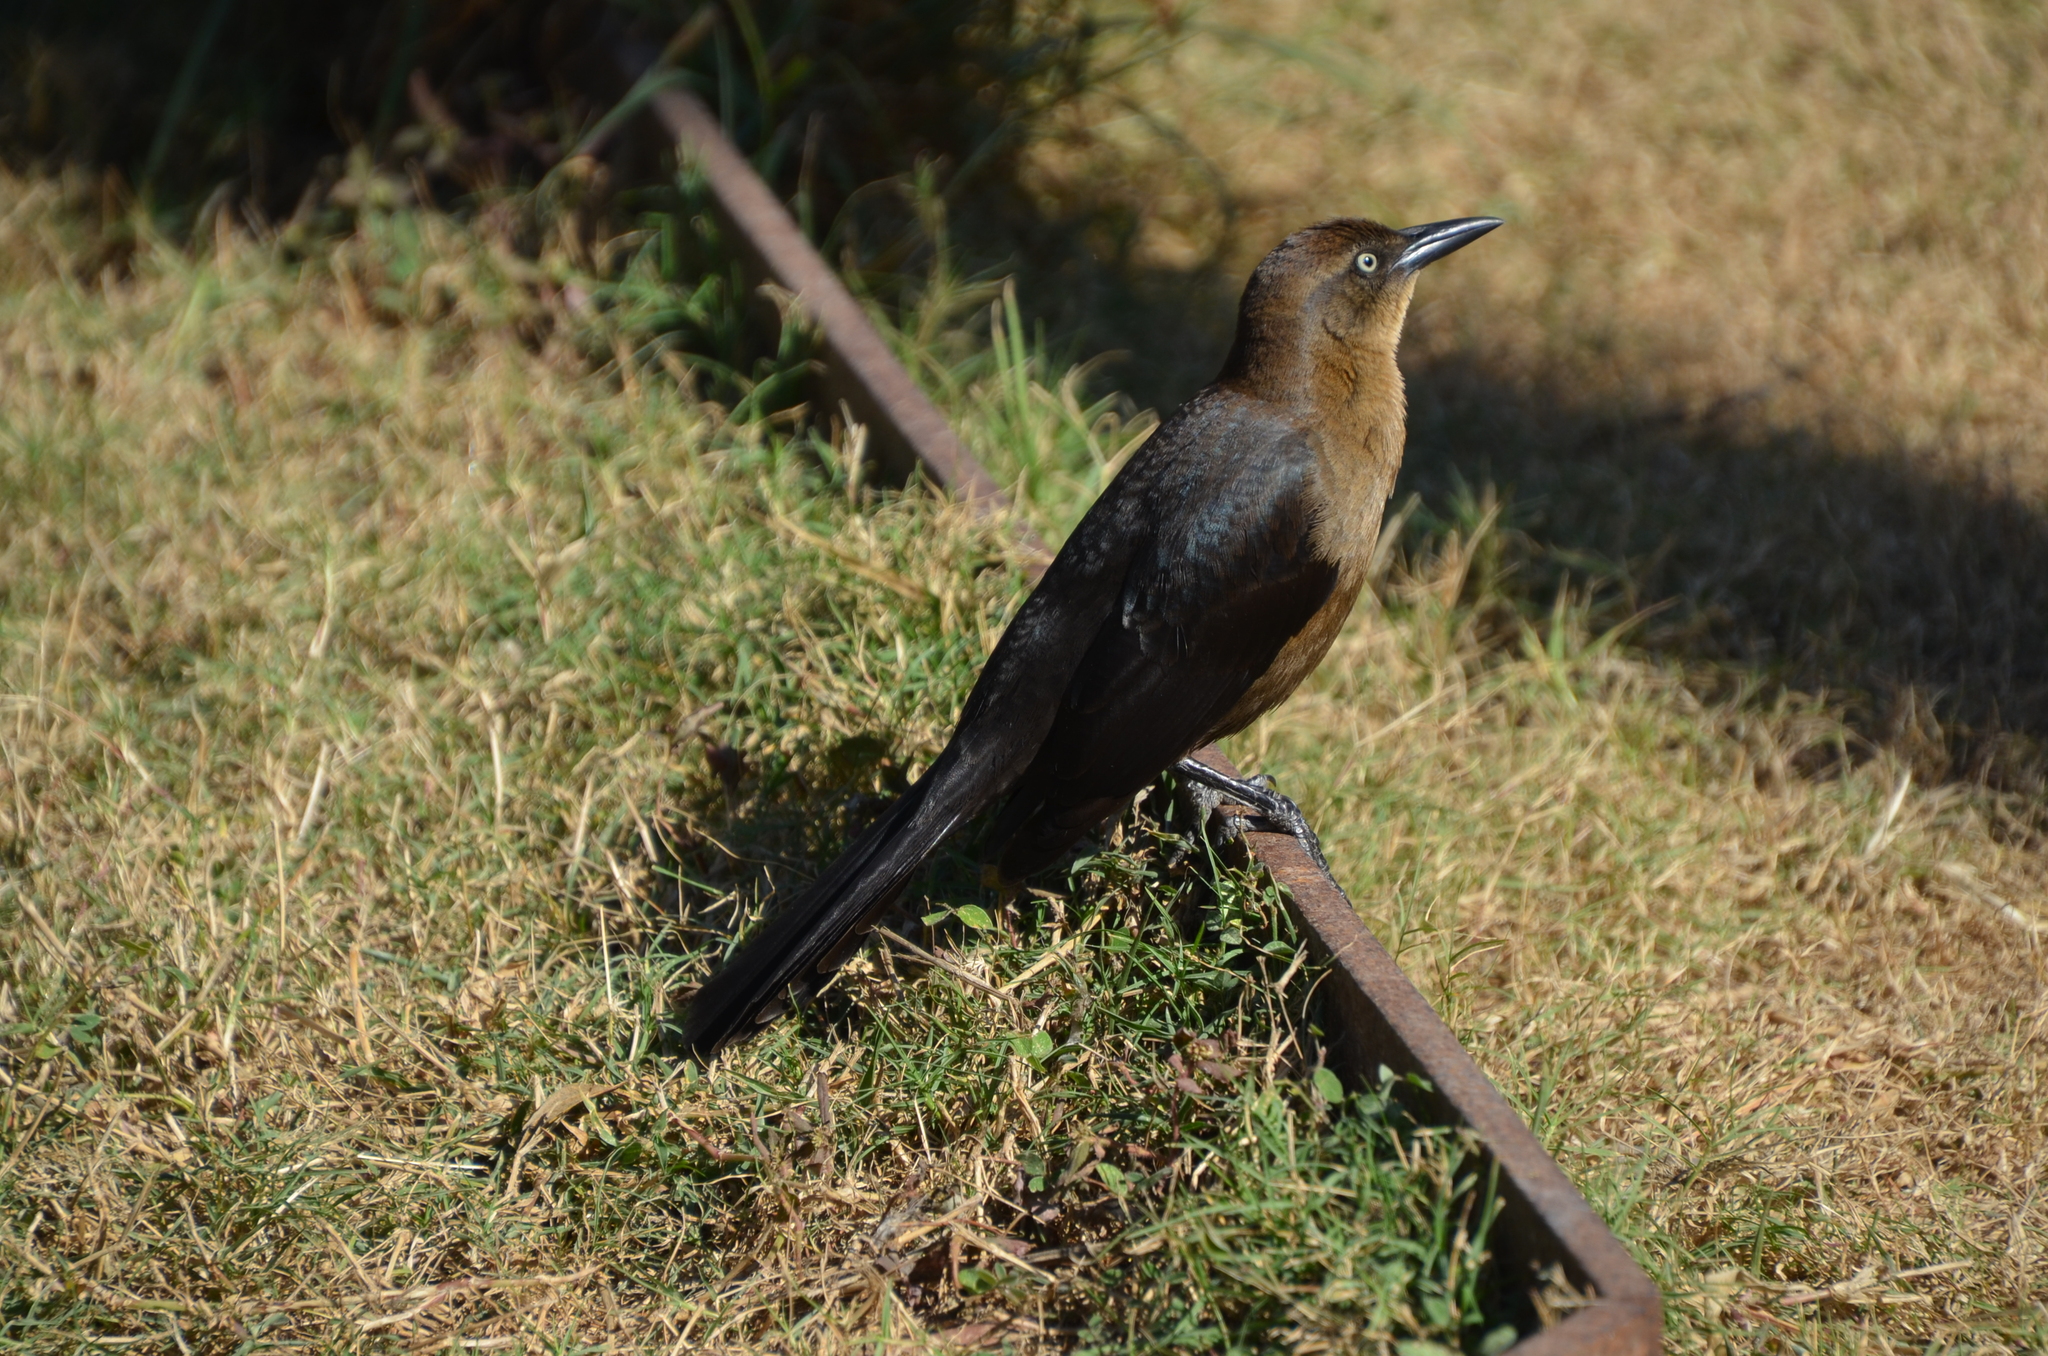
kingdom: Animalia
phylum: Chordata
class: Aves
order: Passeriformes
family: Icteridae
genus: Quiscalus
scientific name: Quiscalus mexicanus
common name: Great-tailed grackle
